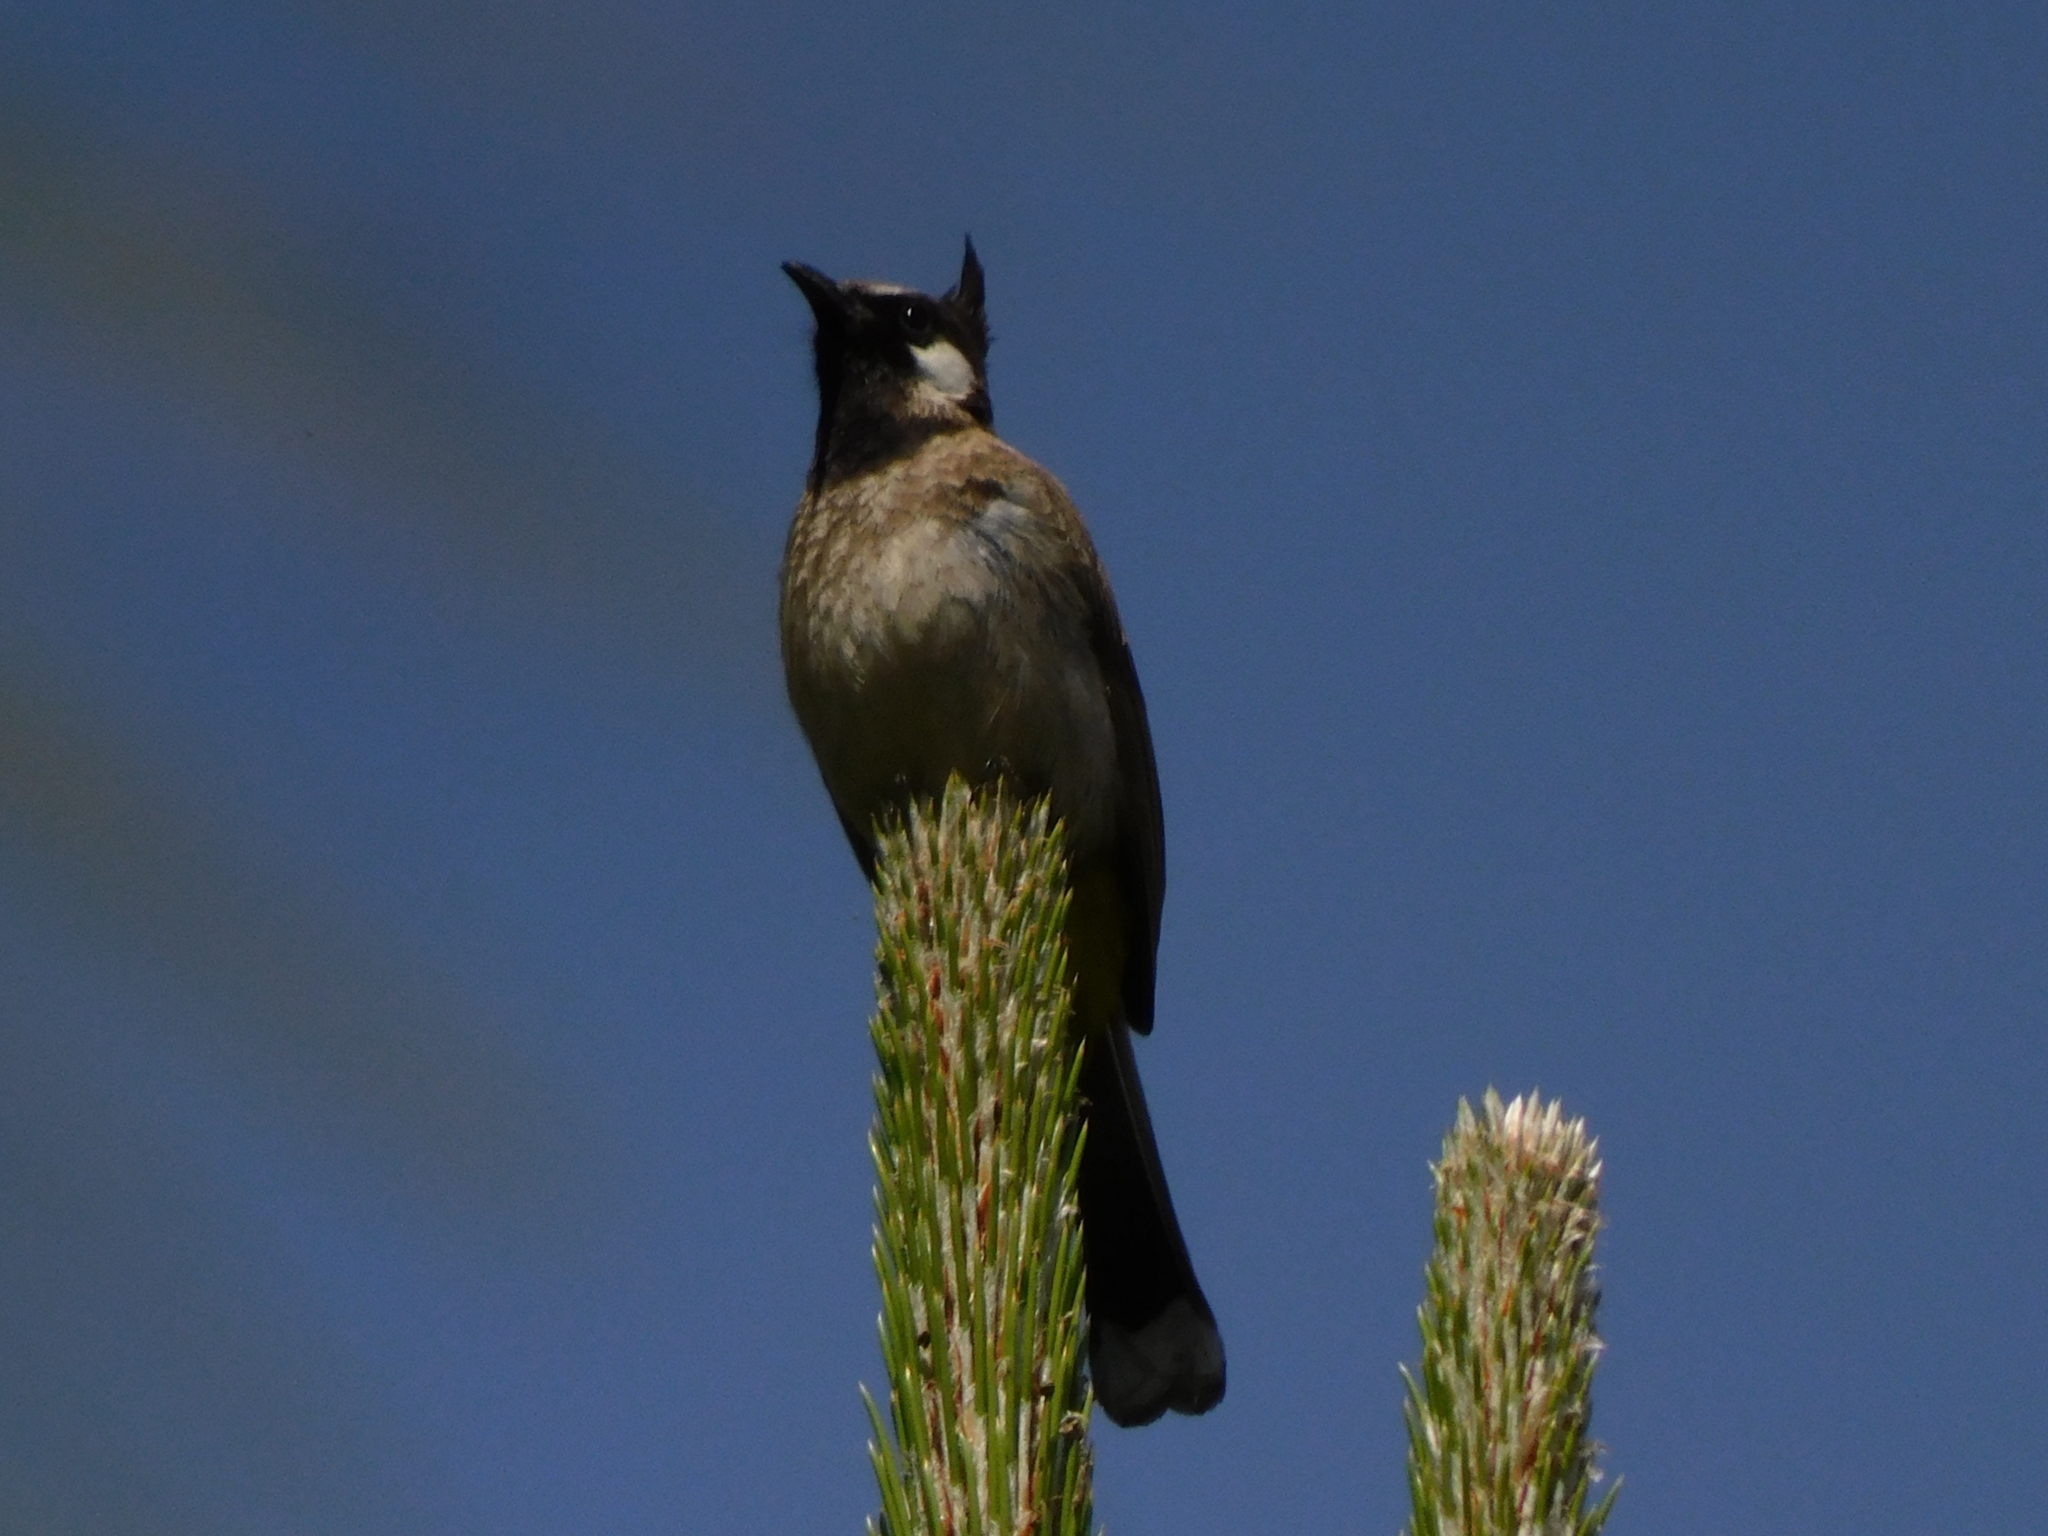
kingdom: Animalia
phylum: Chordata
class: Aves
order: Passeriformes
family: Pycnonotidae
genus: Pycnonotus
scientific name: Pycnonotus leucogenys
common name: Himalayan bulbul
